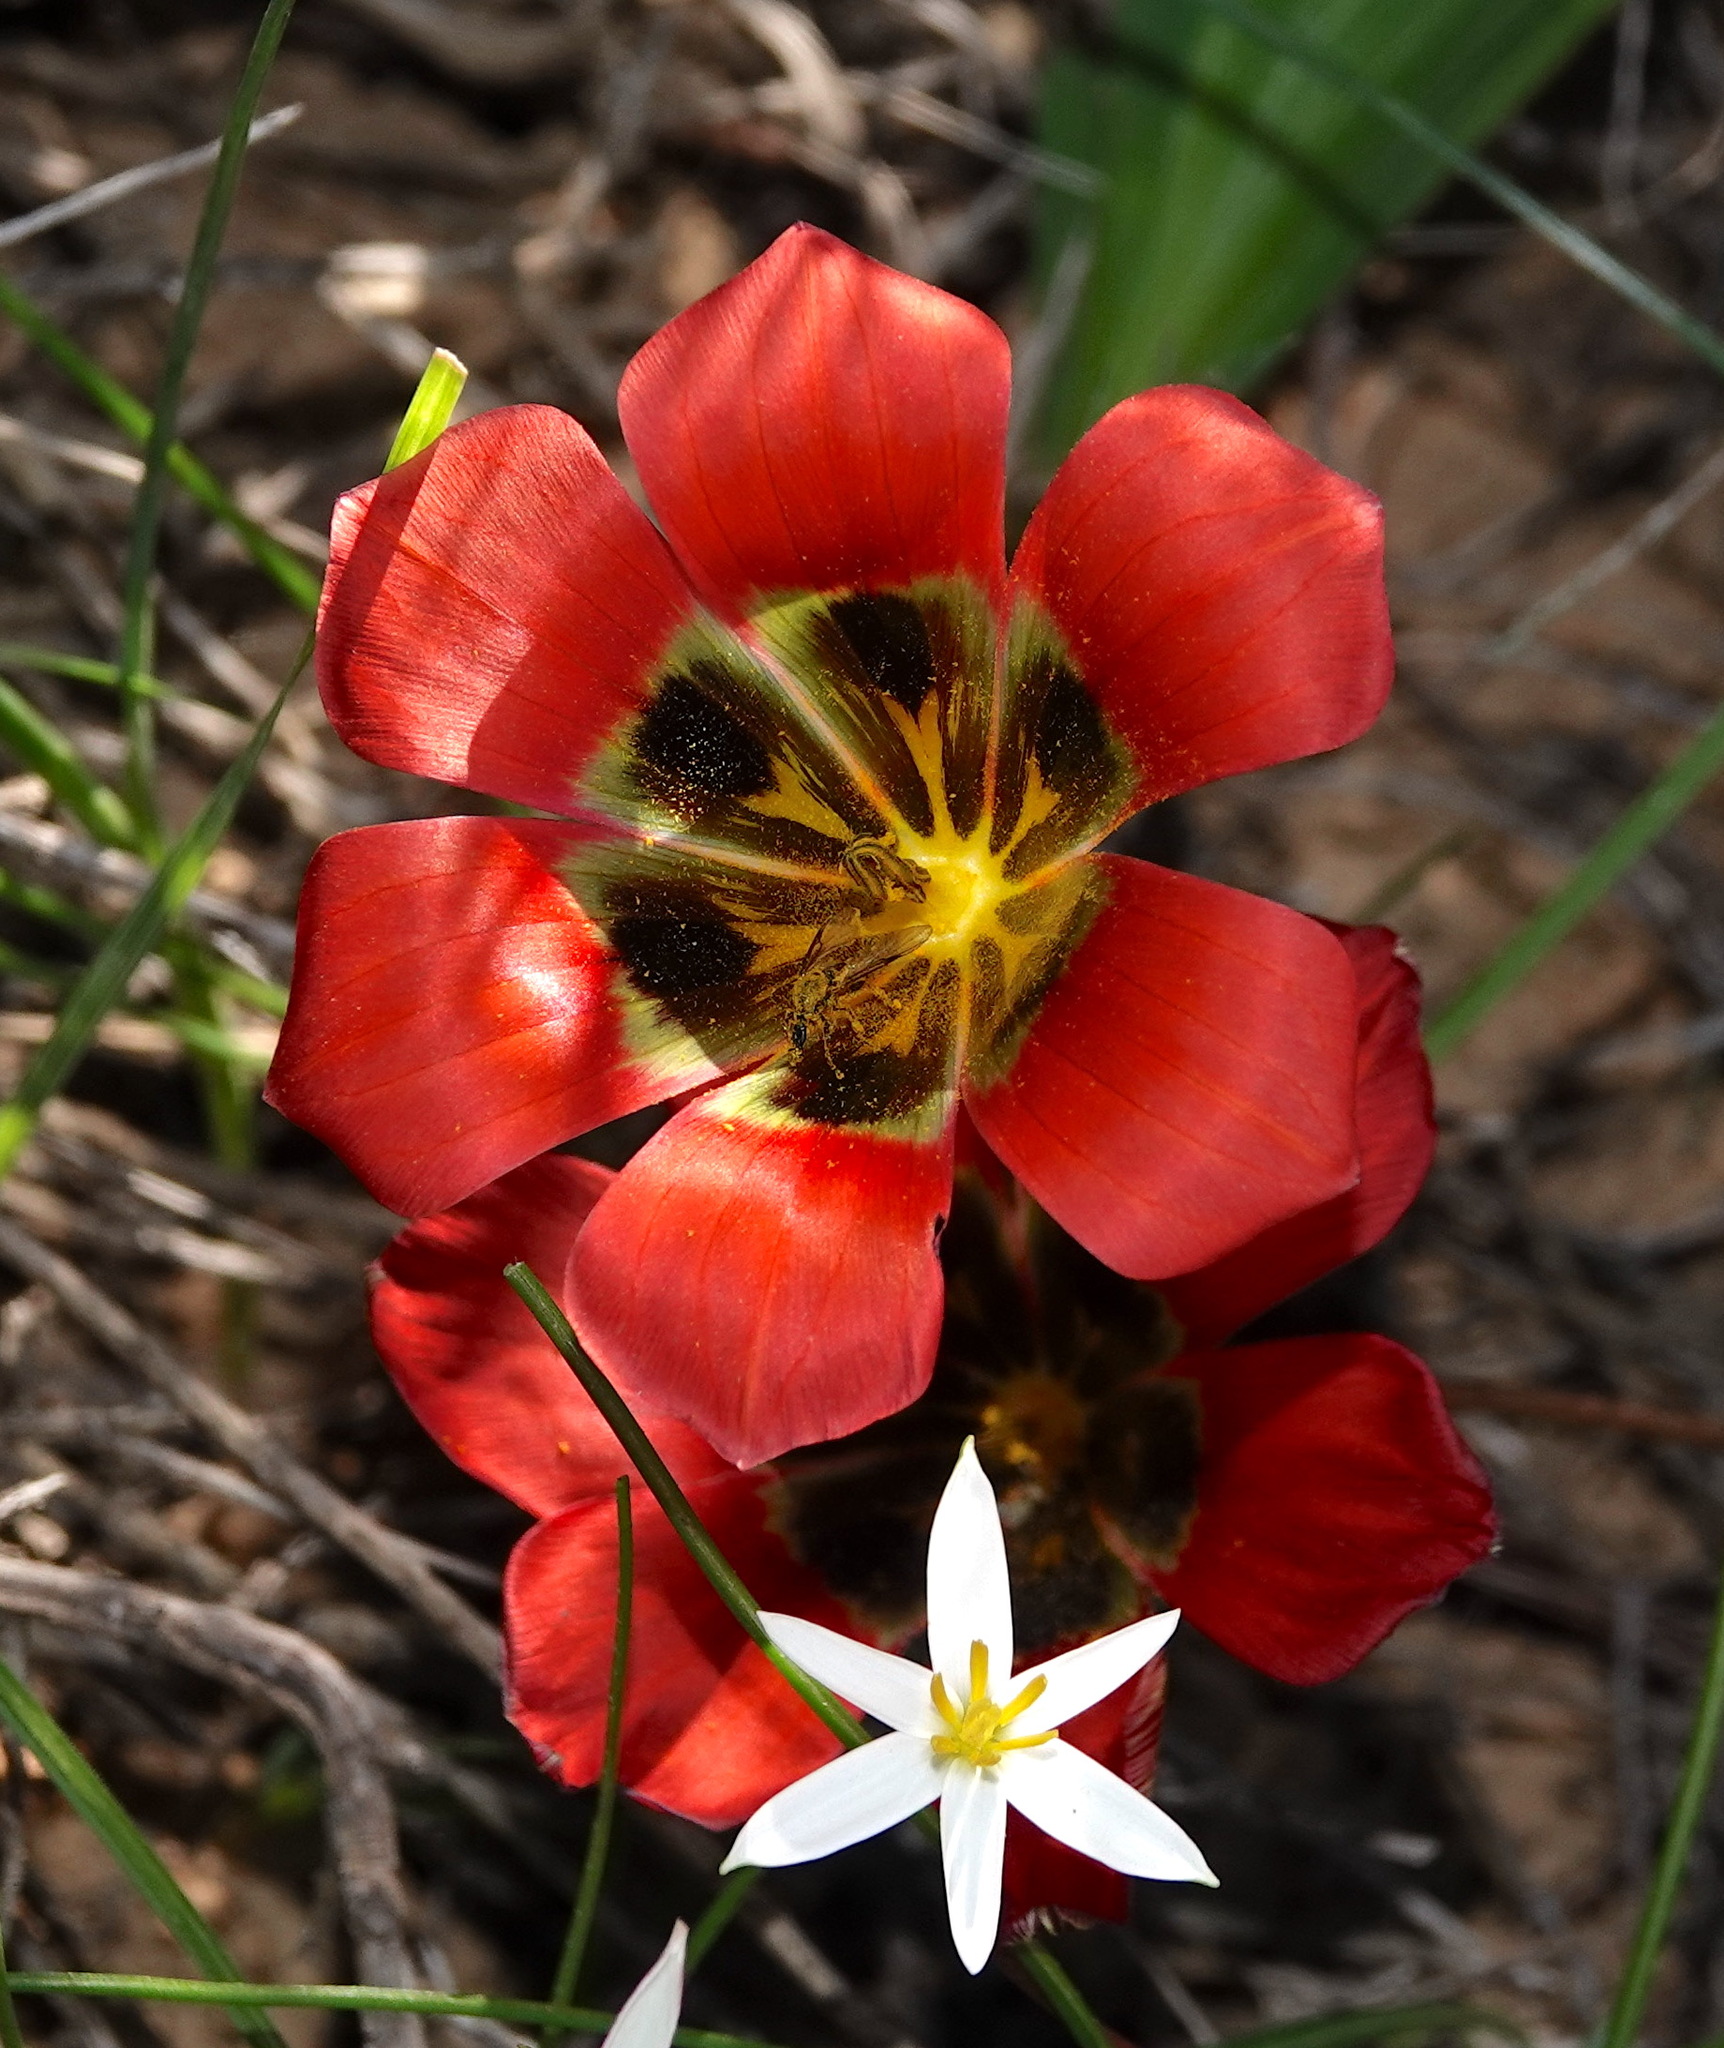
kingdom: Plantae
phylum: Tracheophyta
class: Liliopsida
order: Asparagales
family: Iridaceae
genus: Romulea
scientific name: Romulea sabulosa
